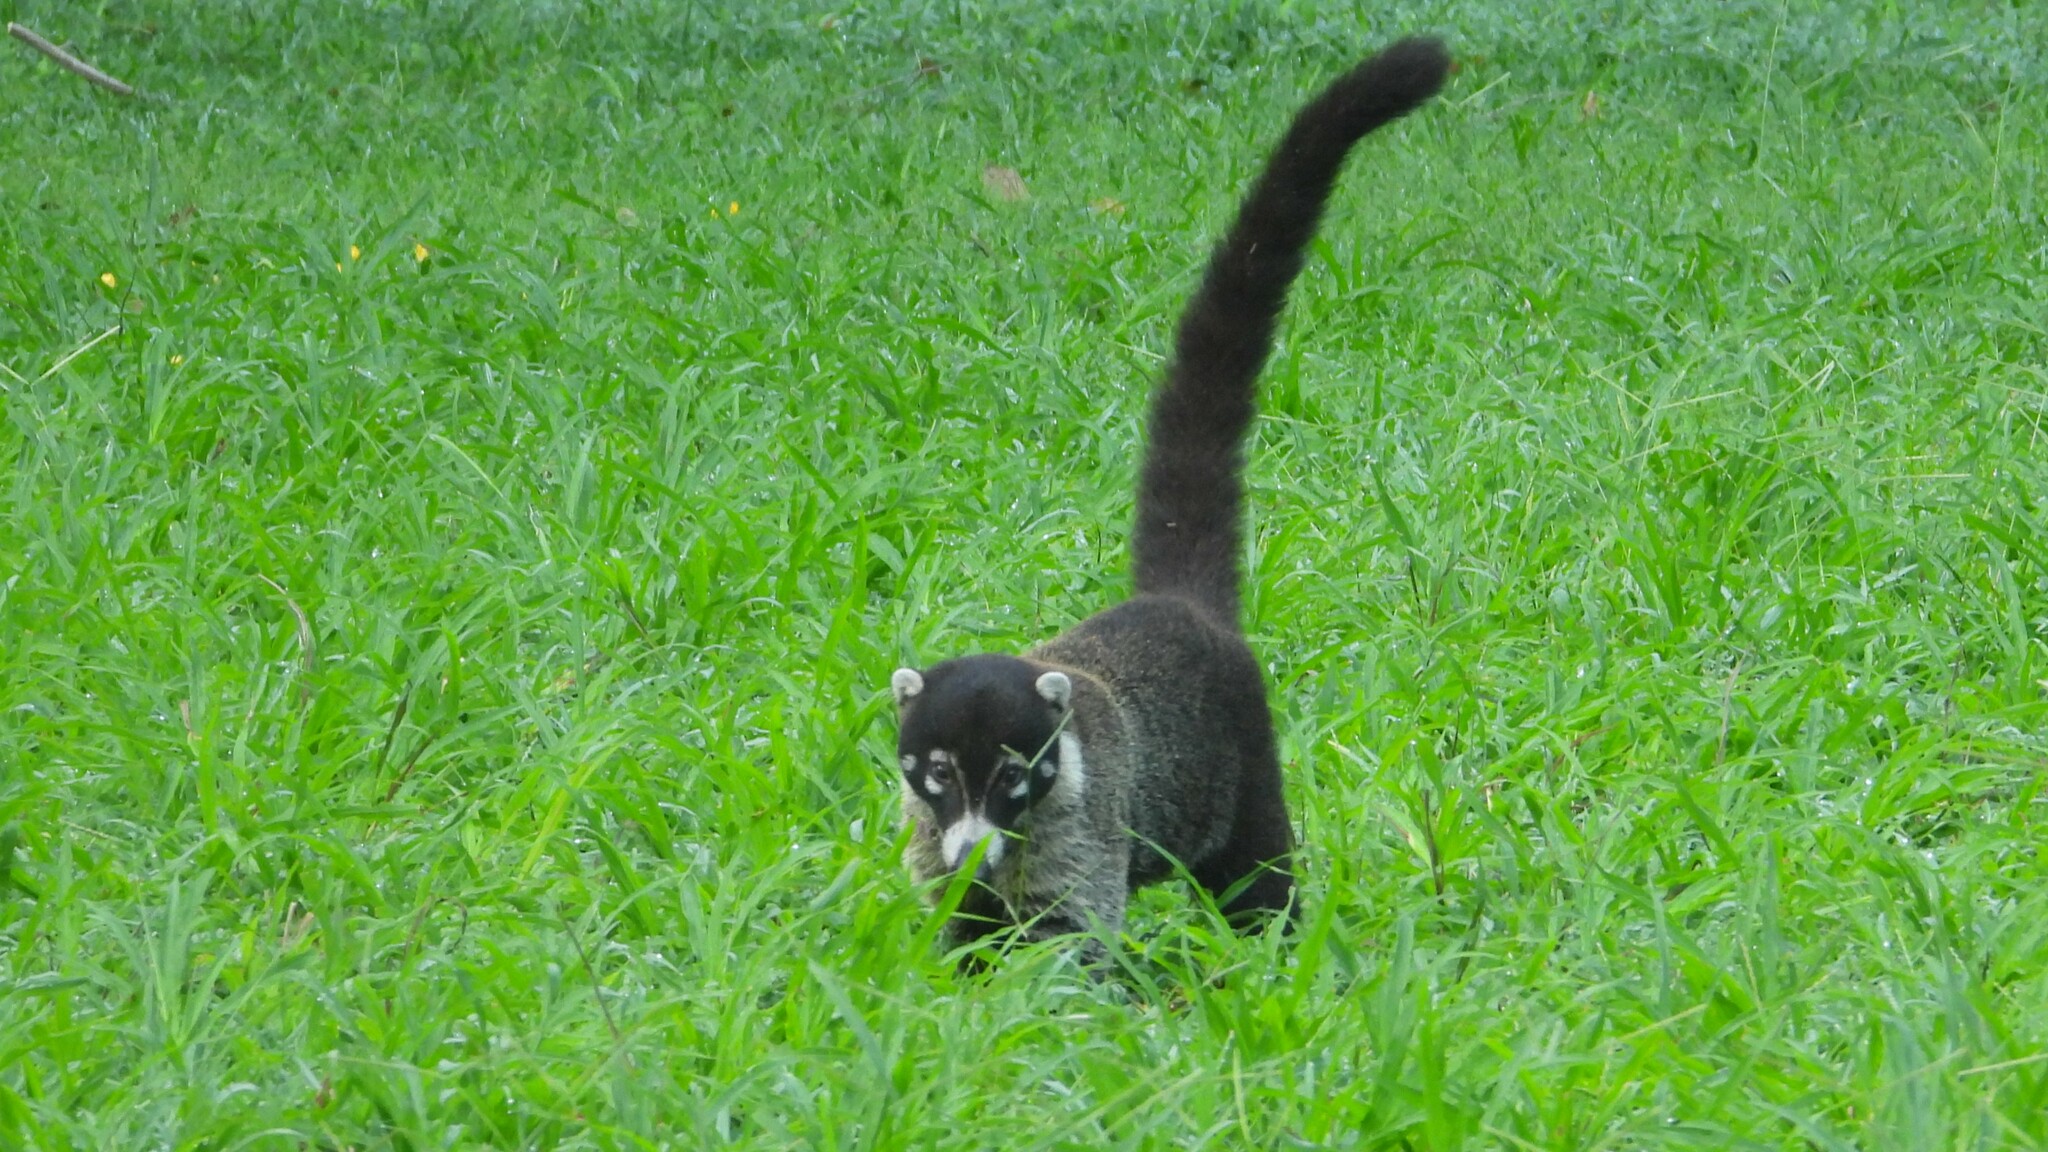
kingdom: Animalia
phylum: Chordata
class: Mammalia
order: Carnivora
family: Procyonidae
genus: Nasua
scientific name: Nasua narica
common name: White-nosed coati
